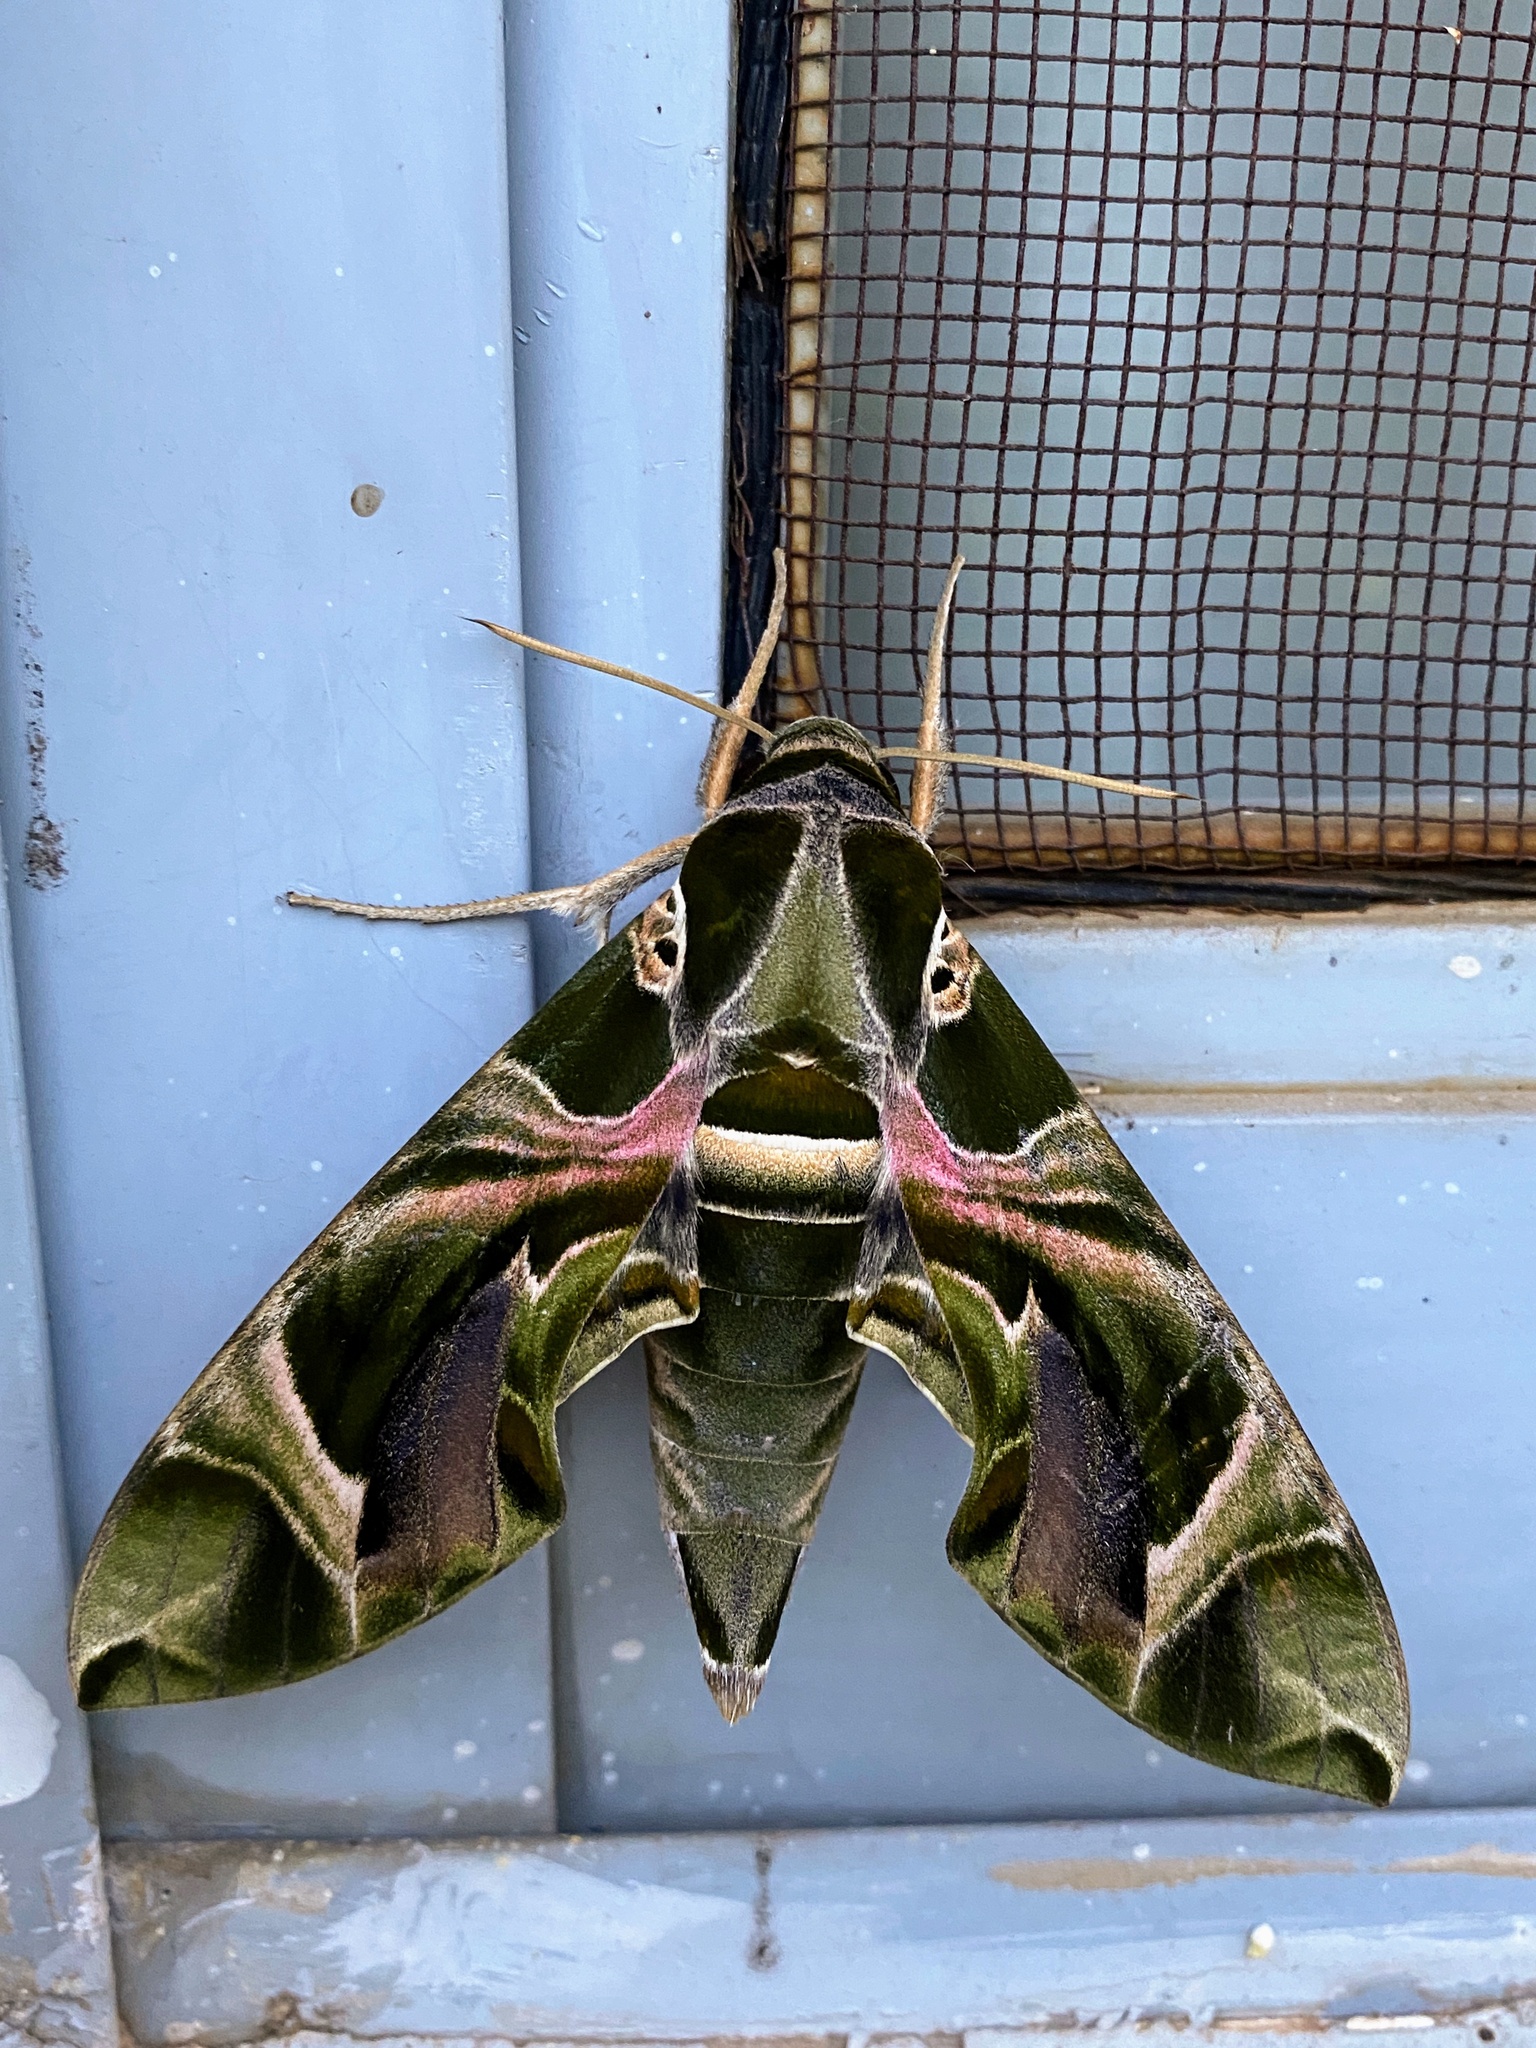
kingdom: Animalia
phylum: Arthropoda
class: Insecta
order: Lepidoptera
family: Sphingidae
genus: Daphnis
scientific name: Daphnis nerii
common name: Oleander hawk-moth
